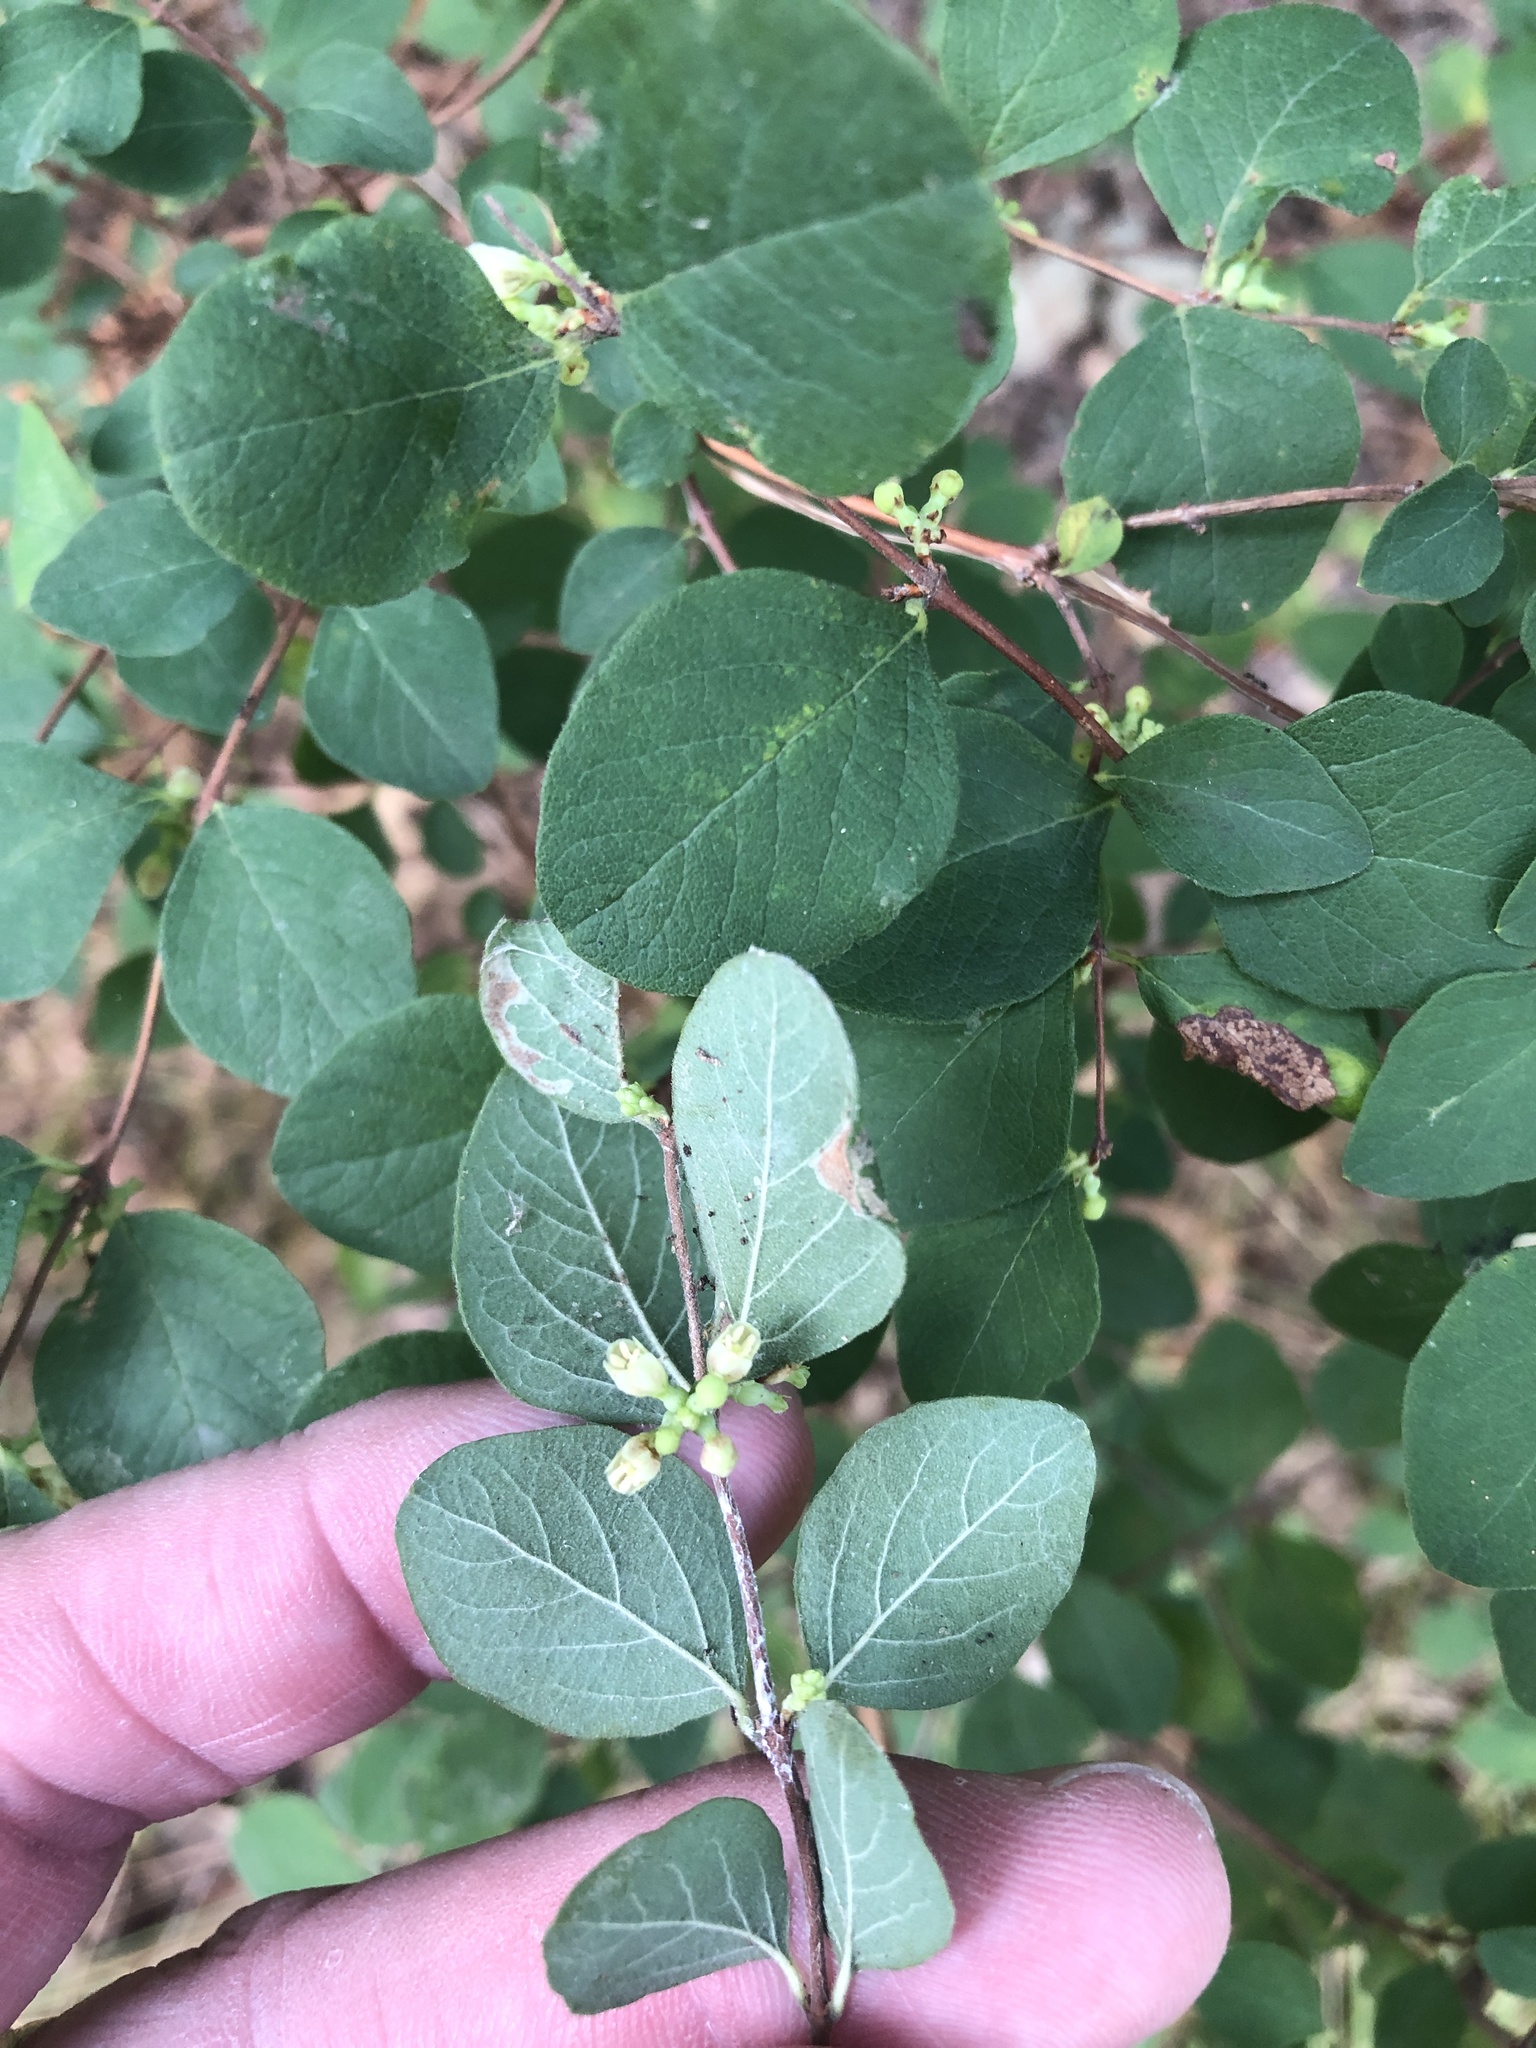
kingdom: Plantae
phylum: Tracheophyta
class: Magnoliopsida
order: Dipsacales
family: Caprifoliaceae
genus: Symphoricarpos
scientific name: Symphoricarpos orbiculatus
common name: Coralberry
